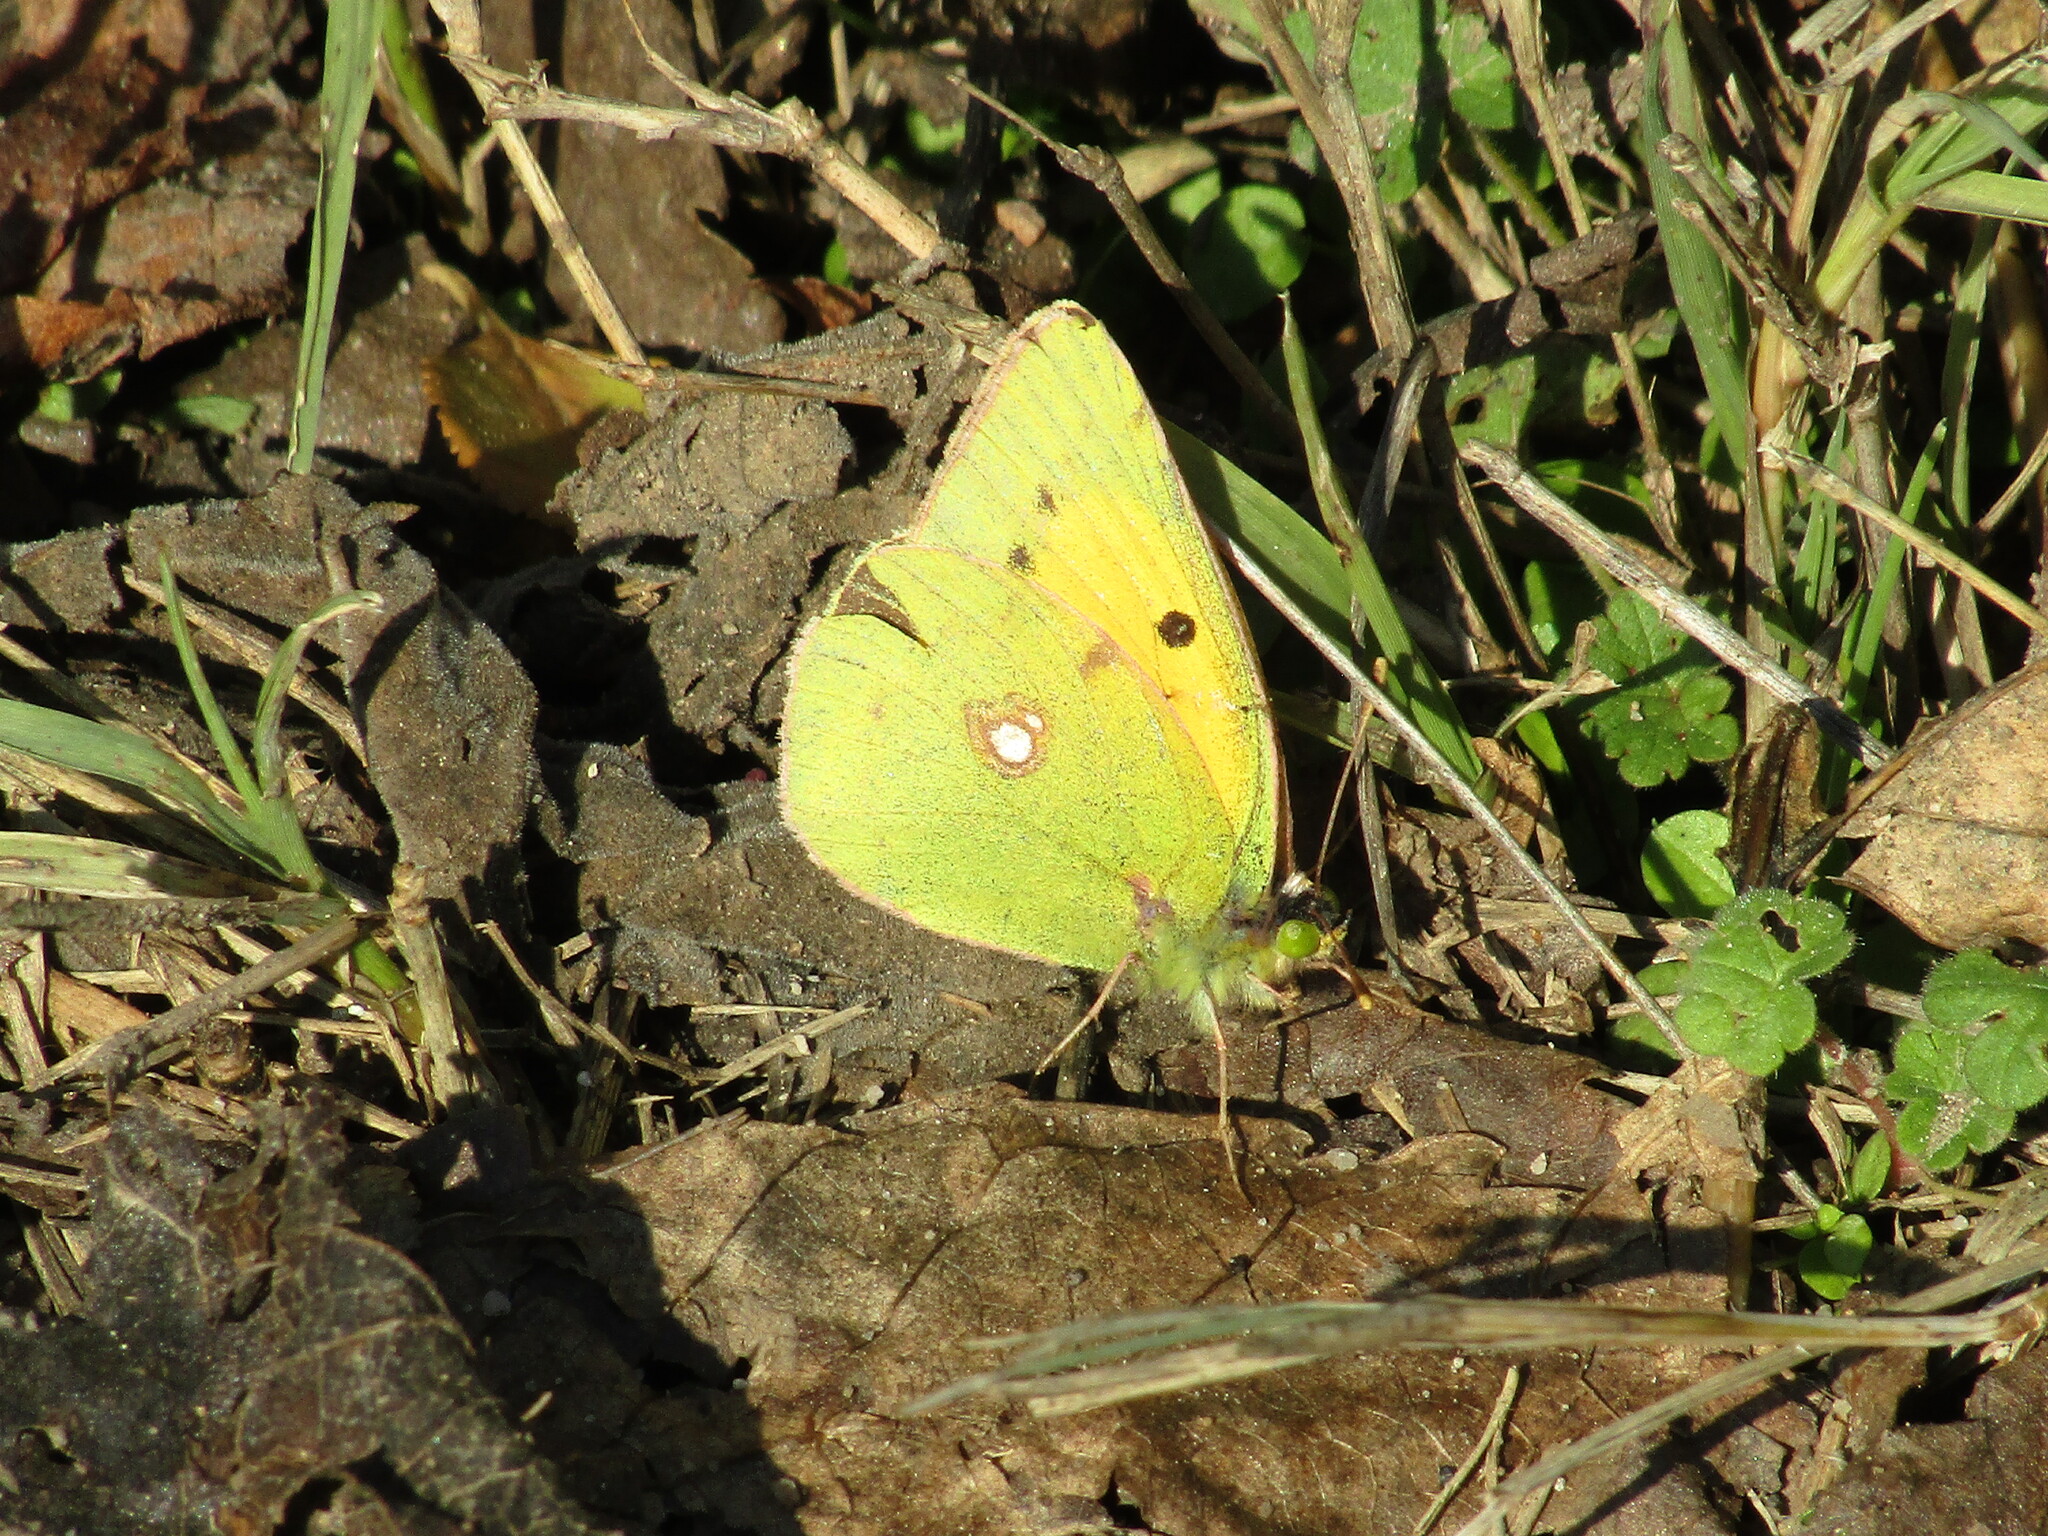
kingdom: Animalia
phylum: Arthropoda
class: Insecta
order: Lepidoptera
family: Pieridae
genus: Colias
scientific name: Colias croceus
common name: Clouded yellow
